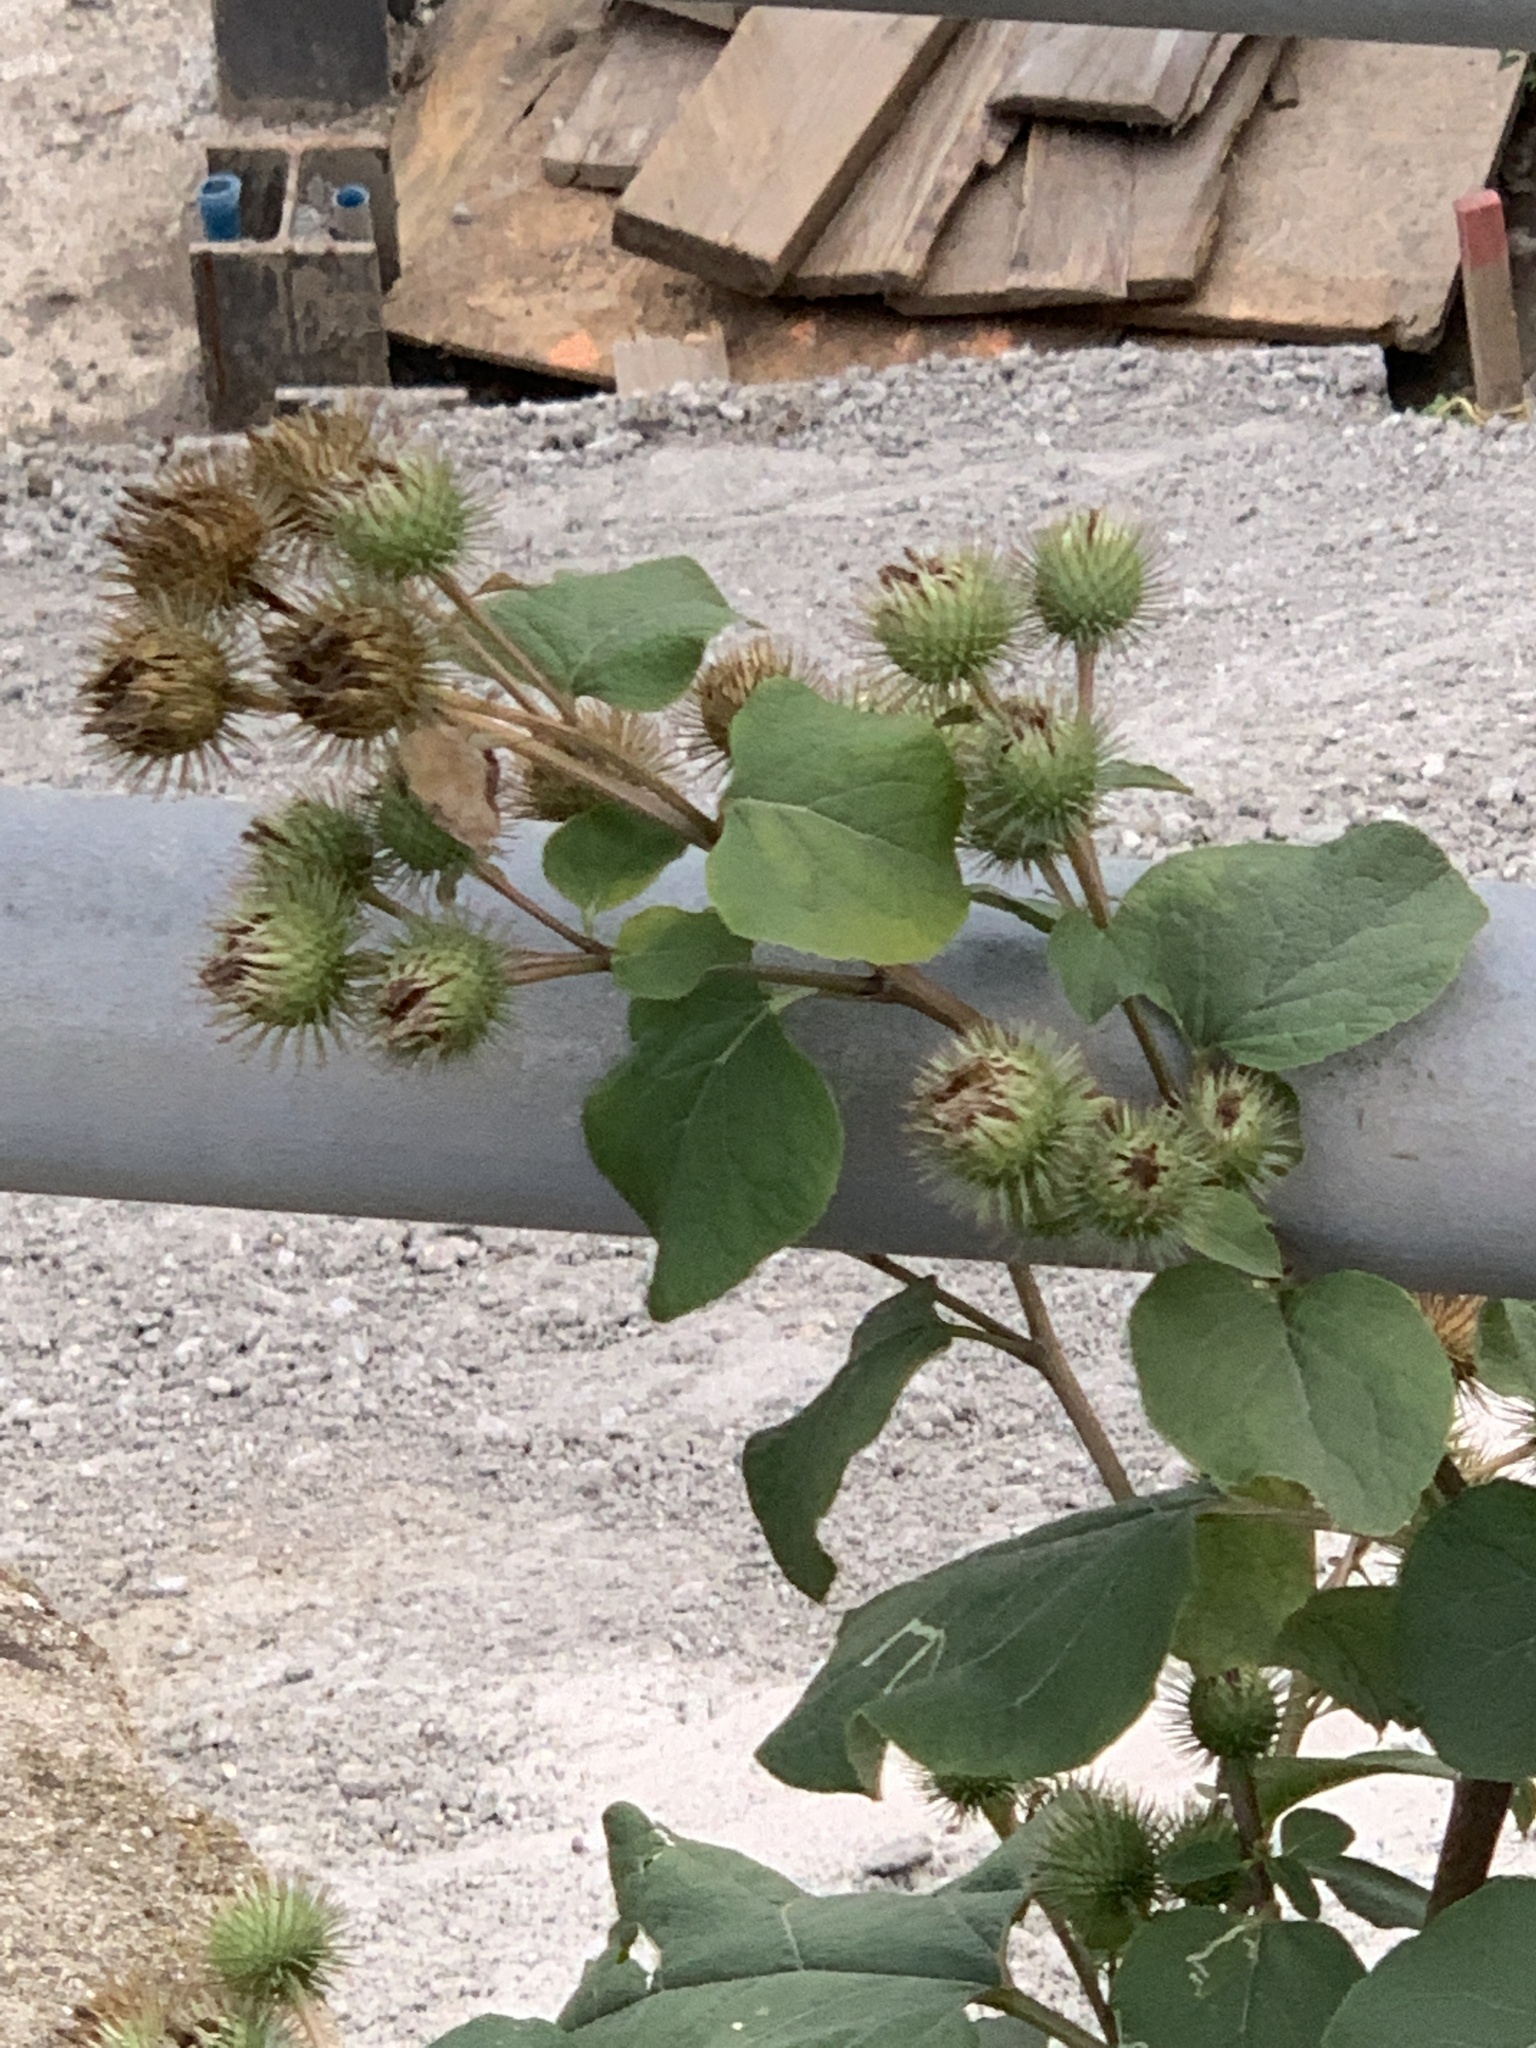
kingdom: Plantae
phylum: Tracheophyta
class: Magnoliopsida
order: Asterales
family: Asteraceae
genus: Arctium
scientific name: Arctium lappa
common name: Greater burdock
